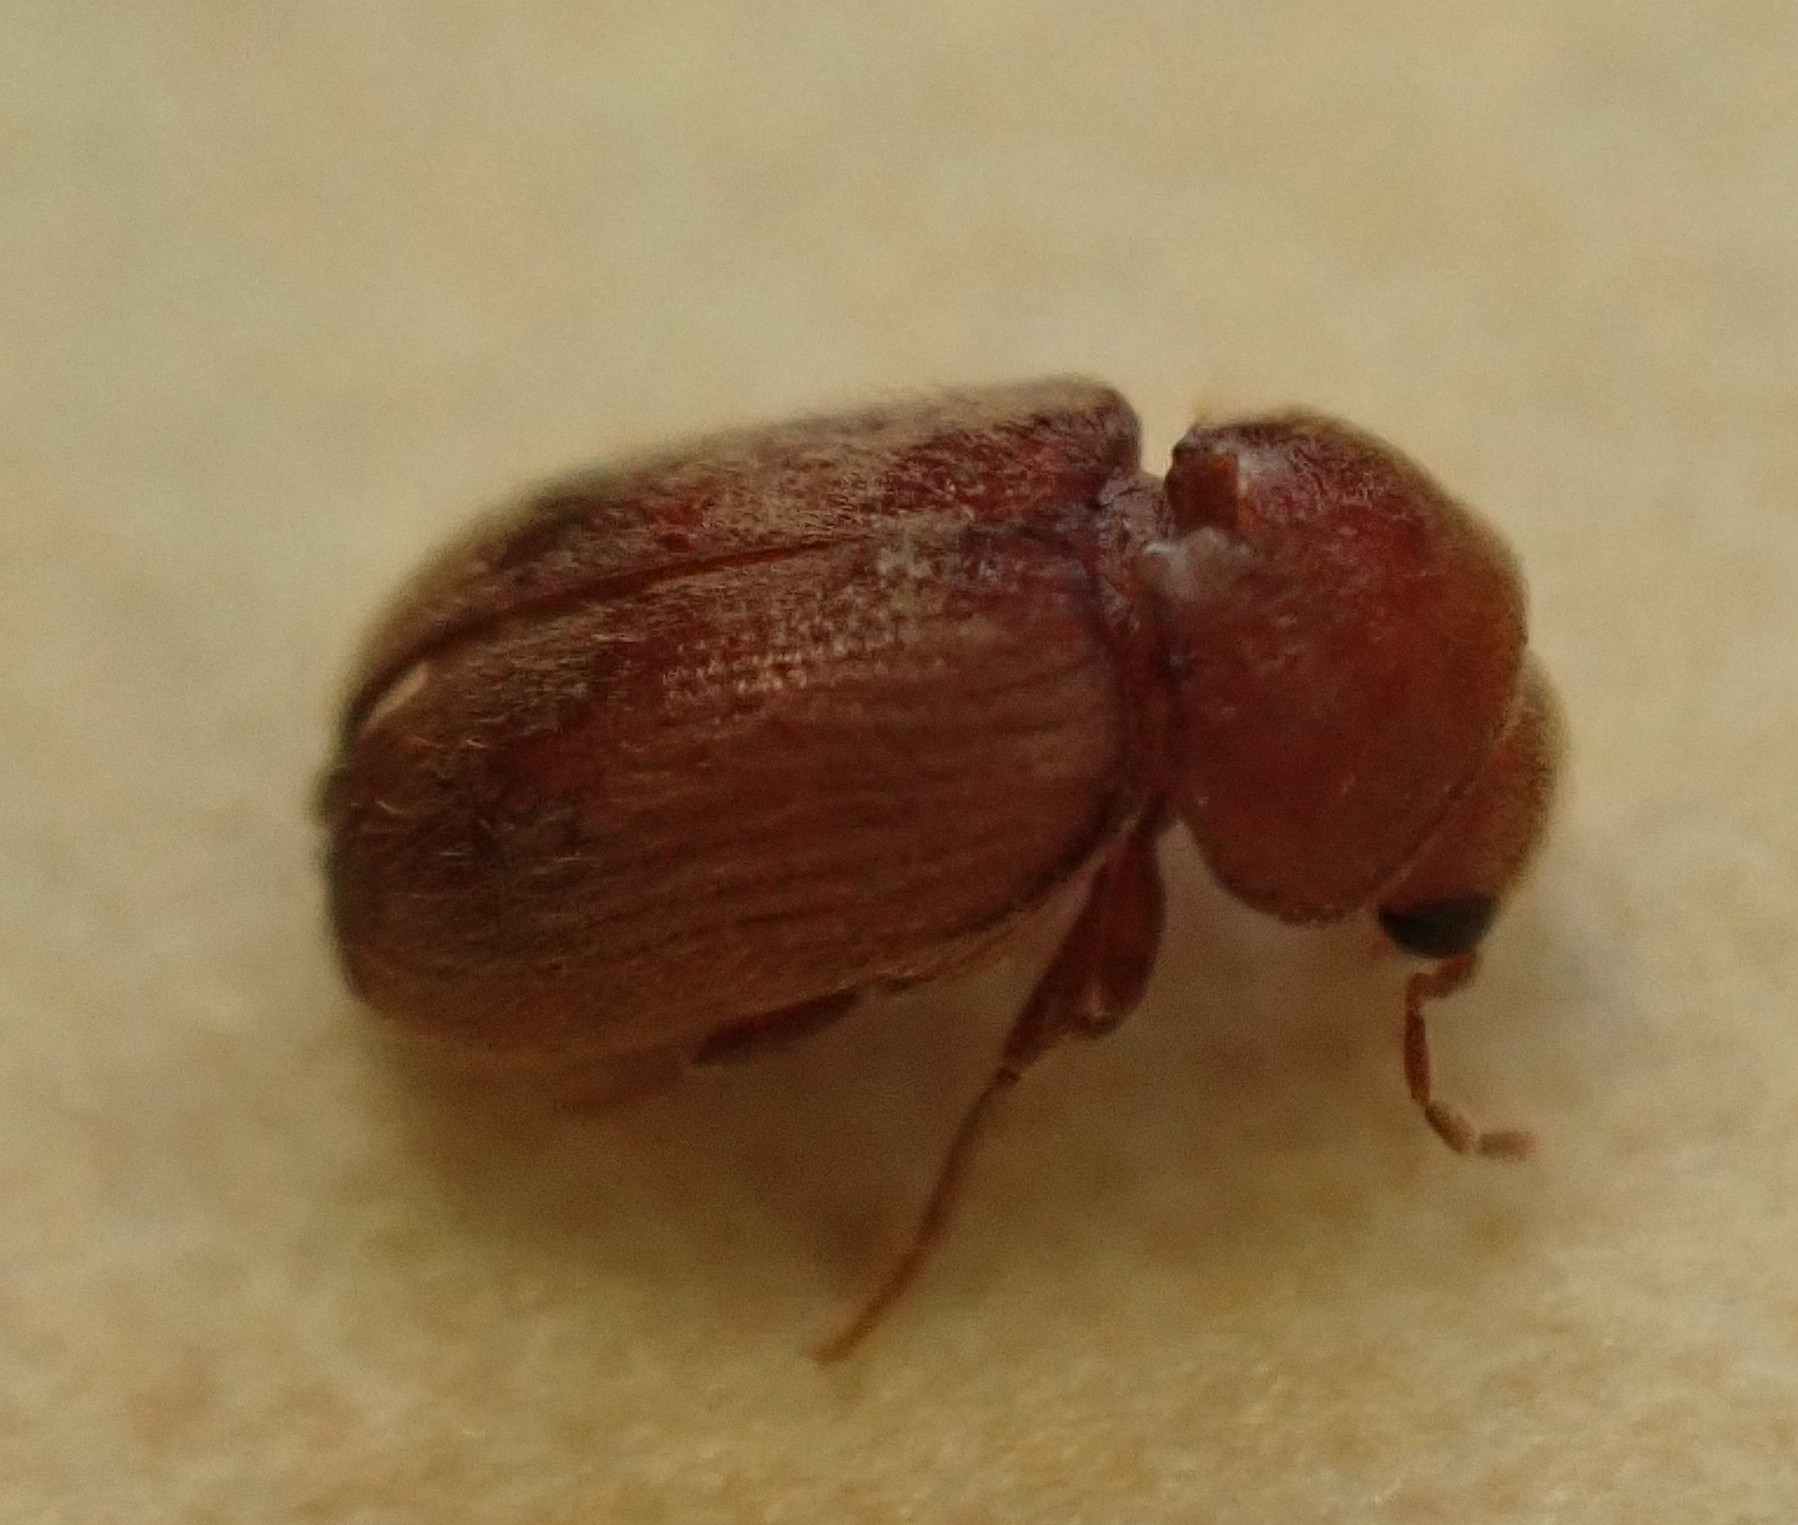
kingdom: Animalia
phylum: Arthropoda
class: Insecta
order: Coleoptera
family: Anobiidae
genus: Stegobium
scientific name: Stegobium paniceum
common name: Drugstore beetle
